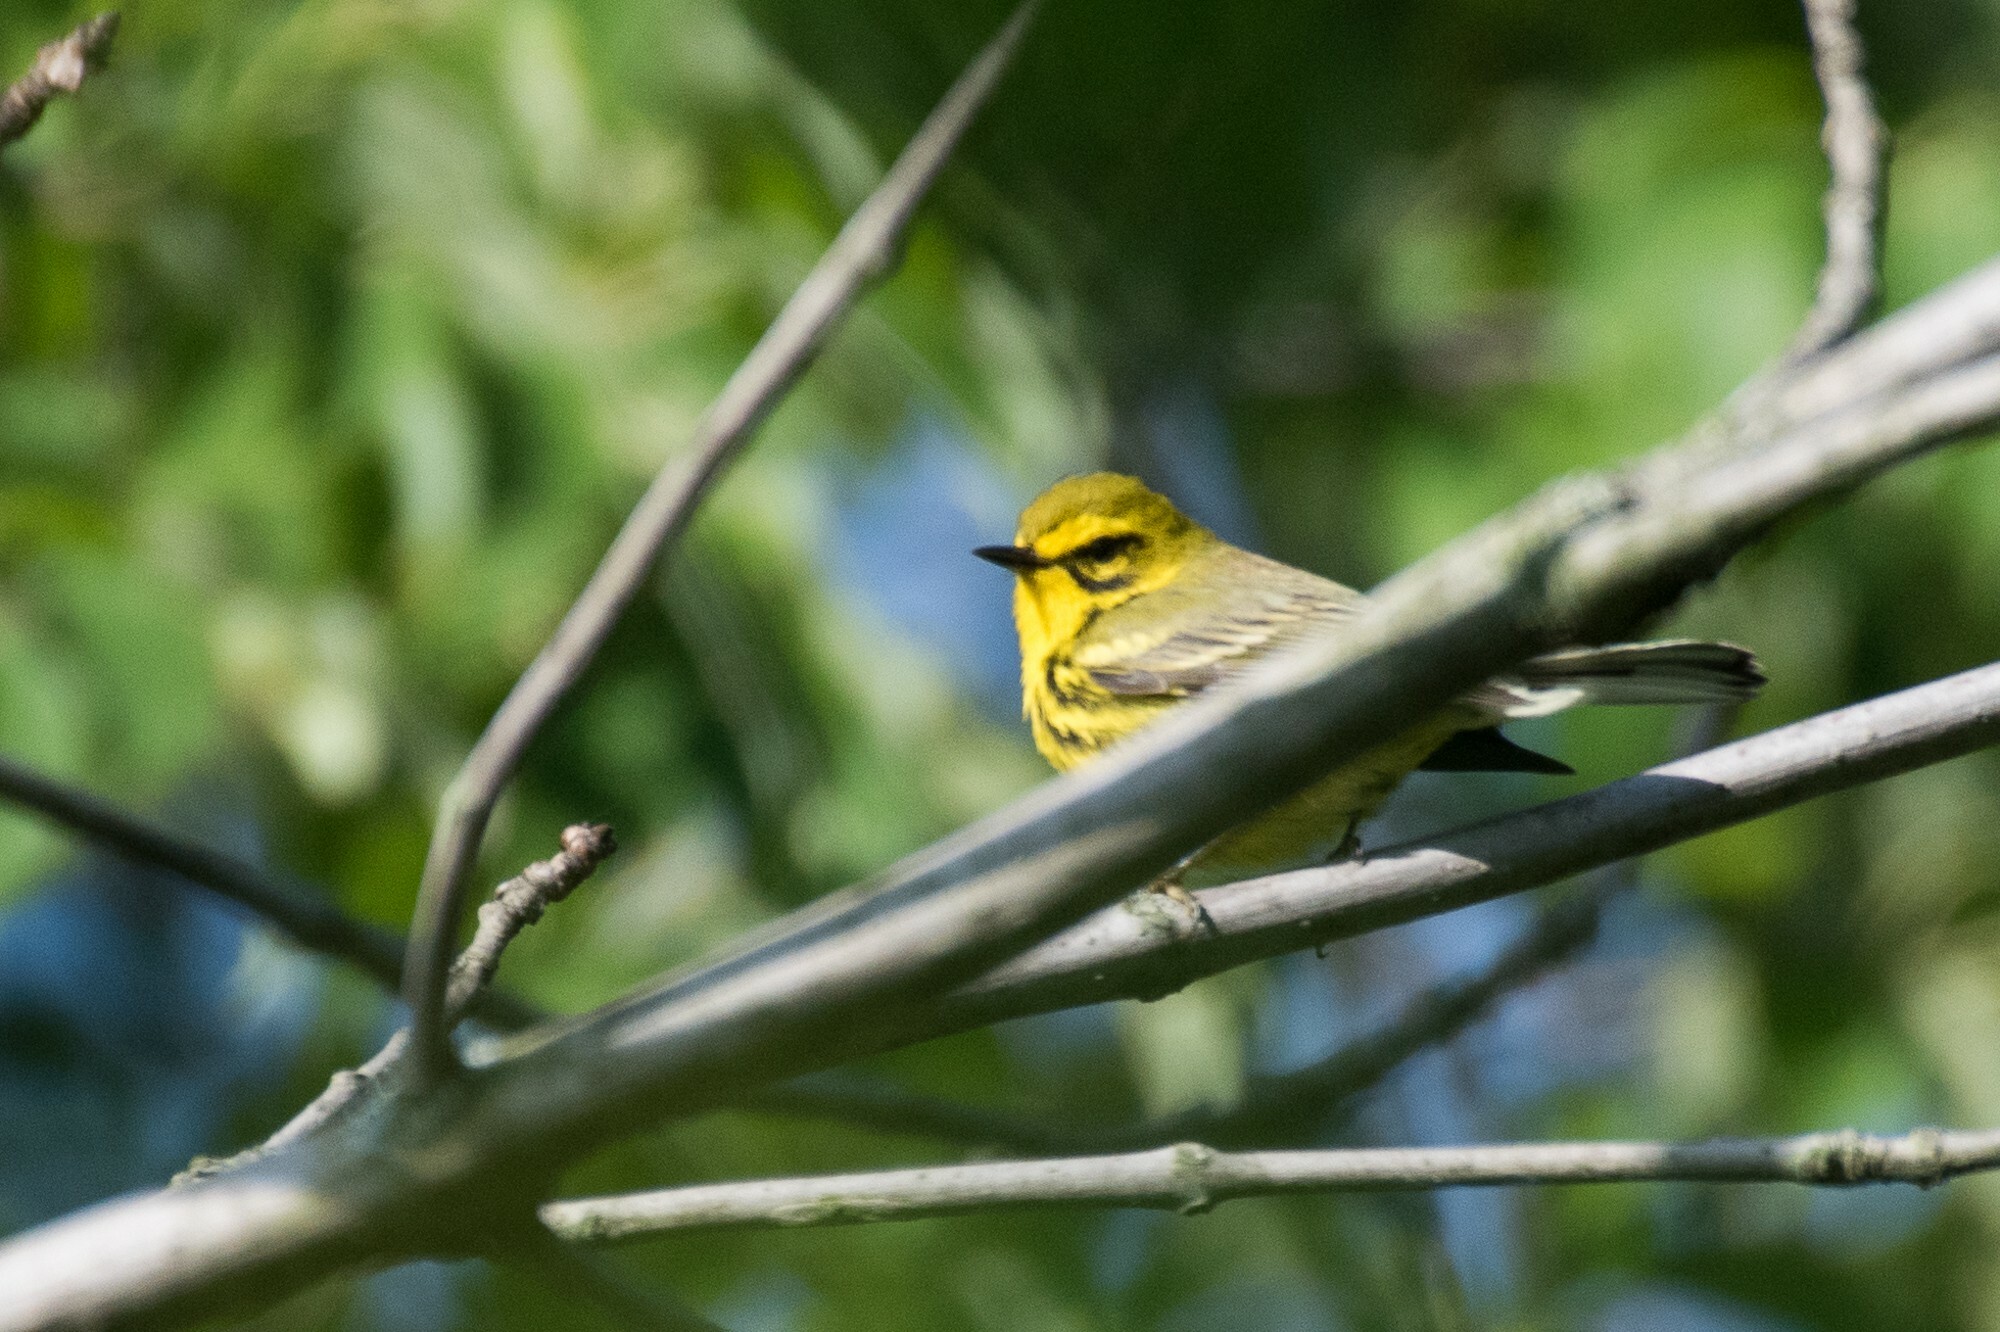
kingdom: Animalia
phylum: Chordata
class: Aves
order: Passeriformes
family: Parulidae
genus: Setophaga
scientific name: Setophaga discolor
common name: Prairie warbler
